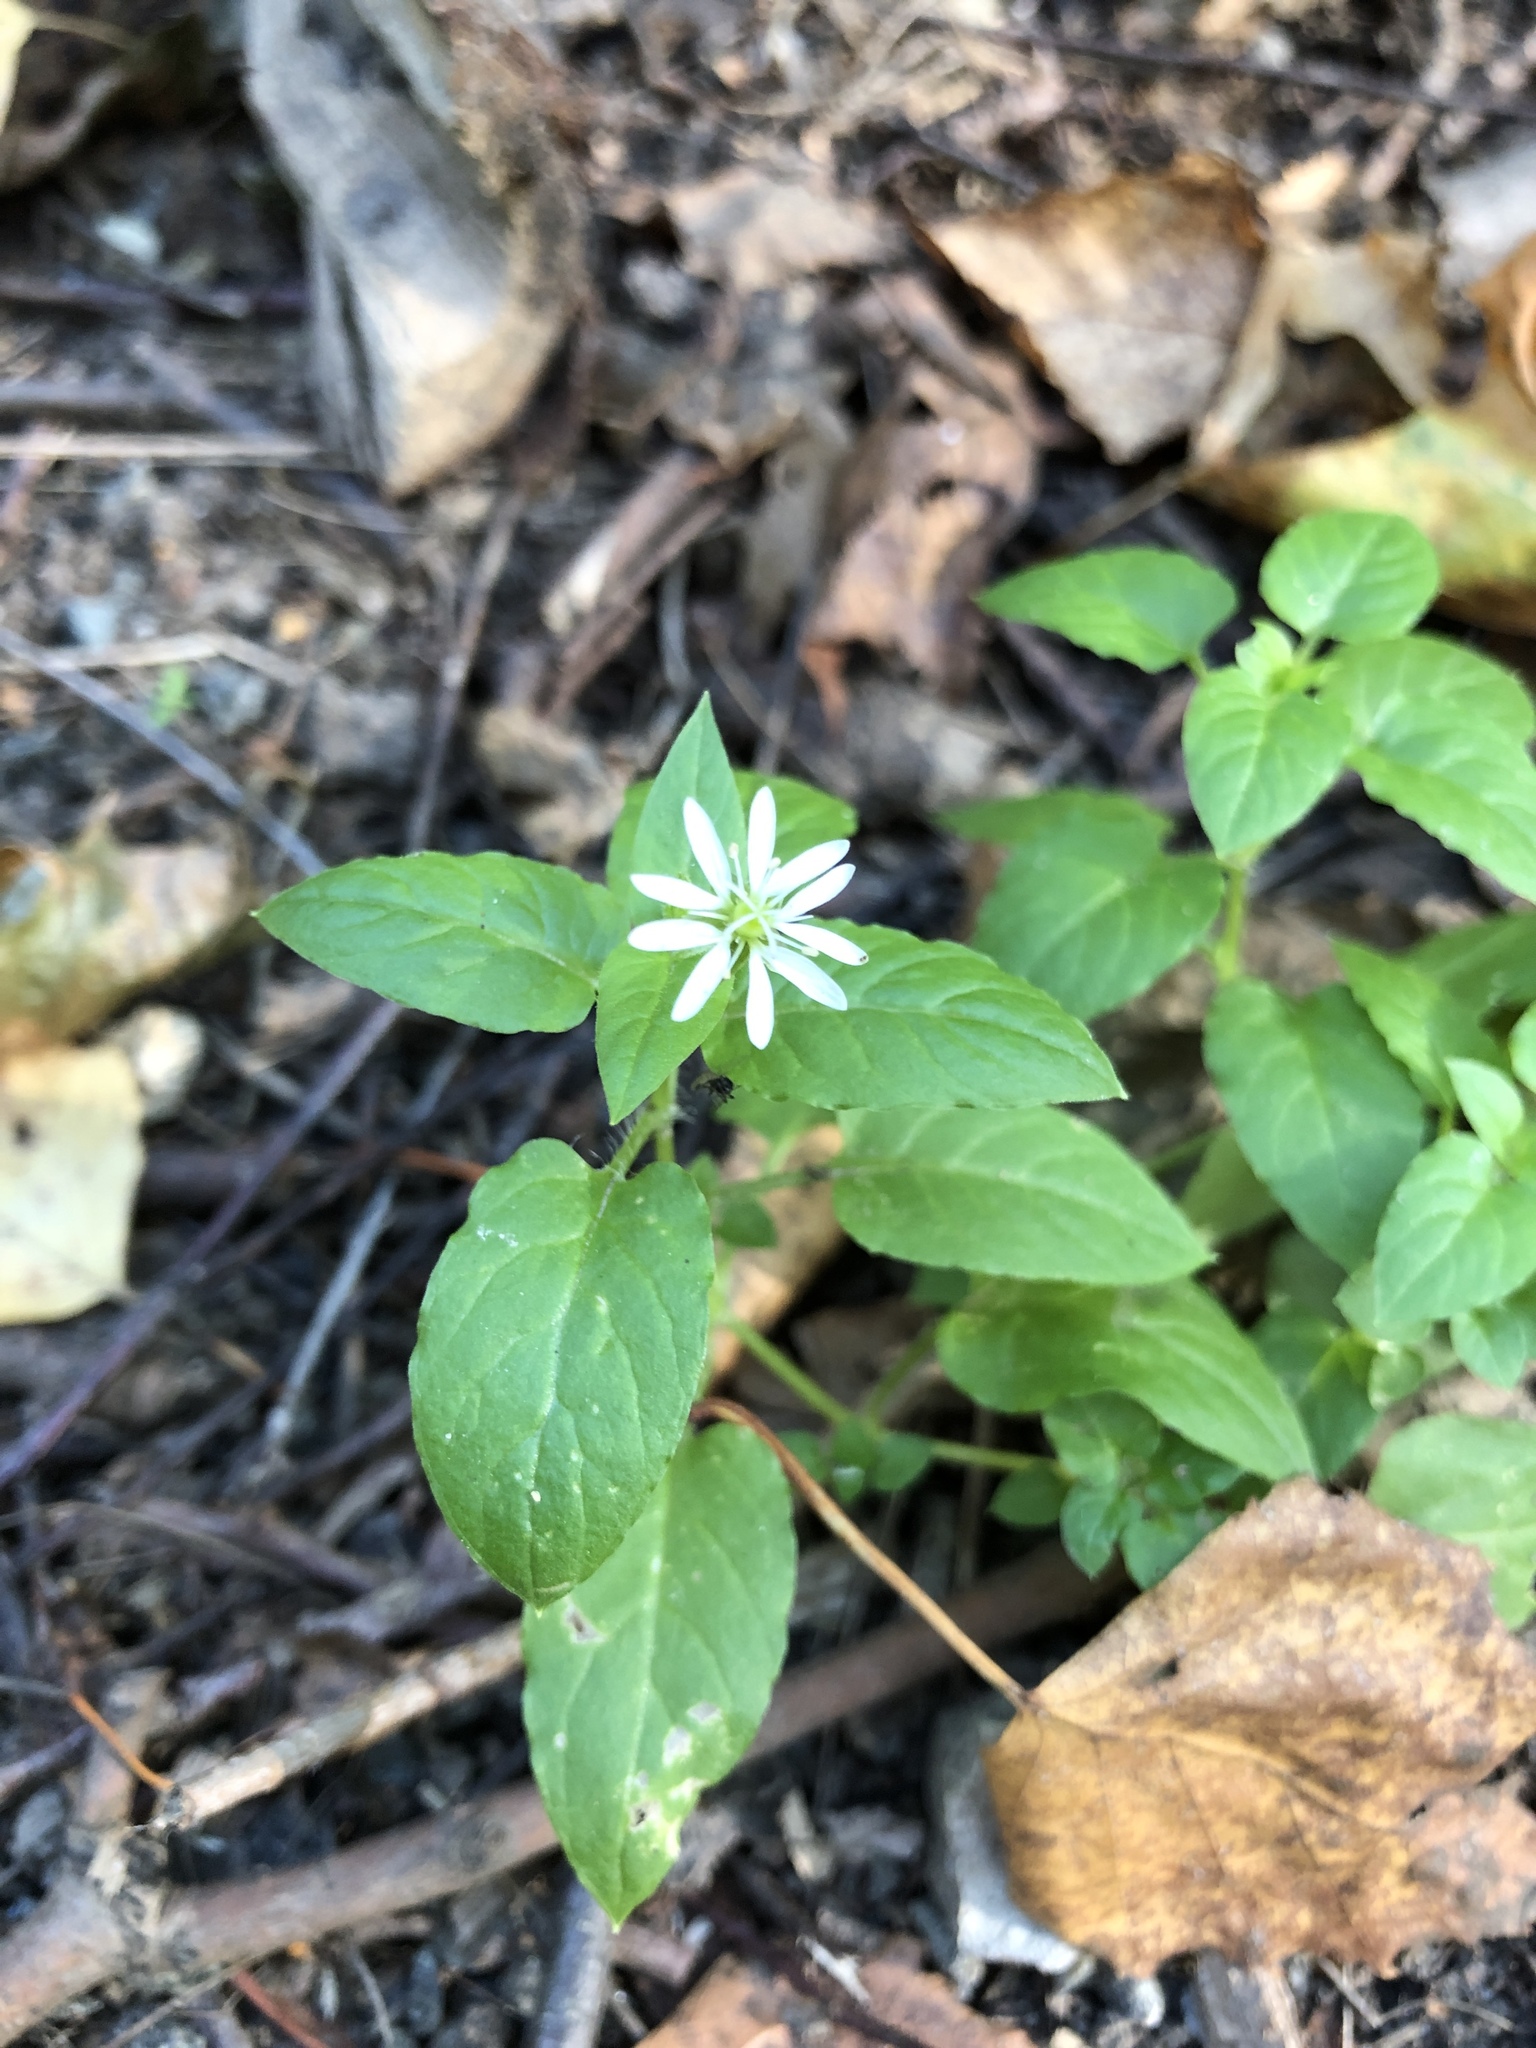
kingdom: Plantae
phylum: Tracheophyta
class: Magnoliopsida
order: Caryophyllales
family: Caryophyllaceae
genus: Stellaria
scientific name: Stellaria aquatica
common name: Water chickweed
